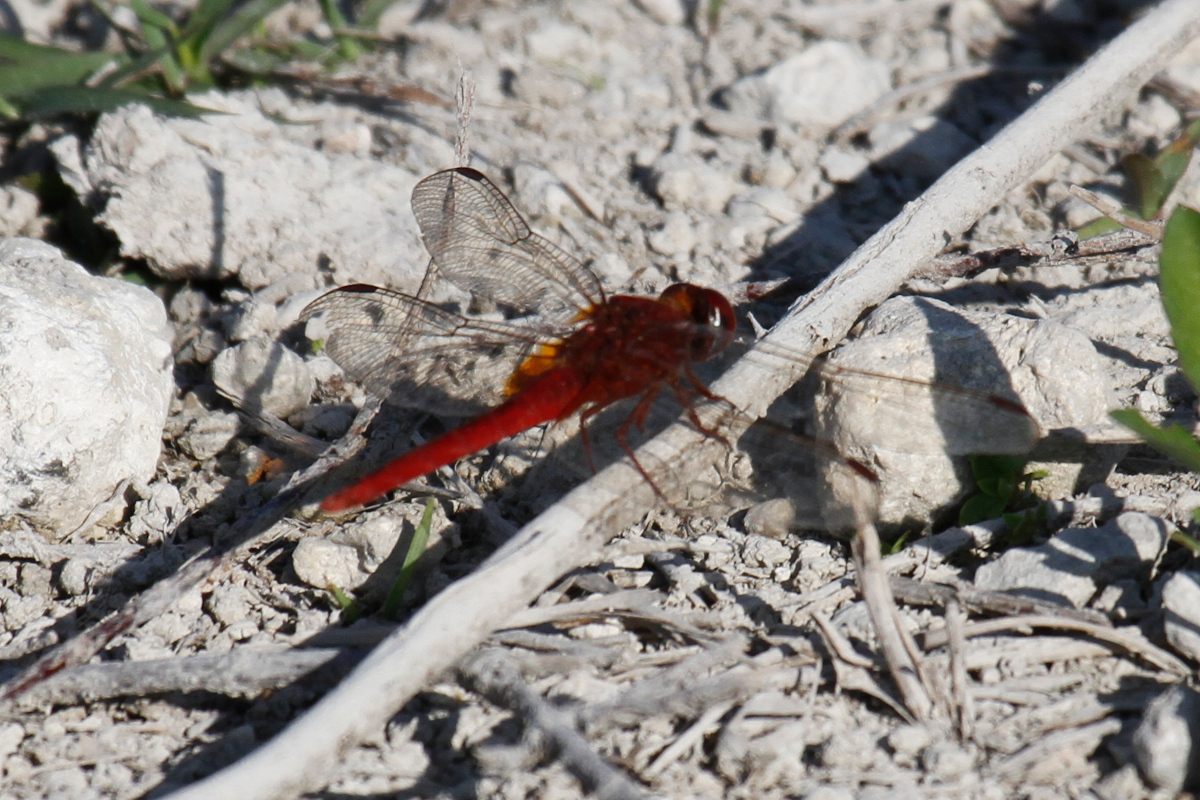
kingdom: Animalia
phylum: Arthropoda
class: Insecta
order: Odonata
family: Libellulidae
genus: Crocothemis
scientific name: Crocothemis servilia
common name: Scarlet skimmer
